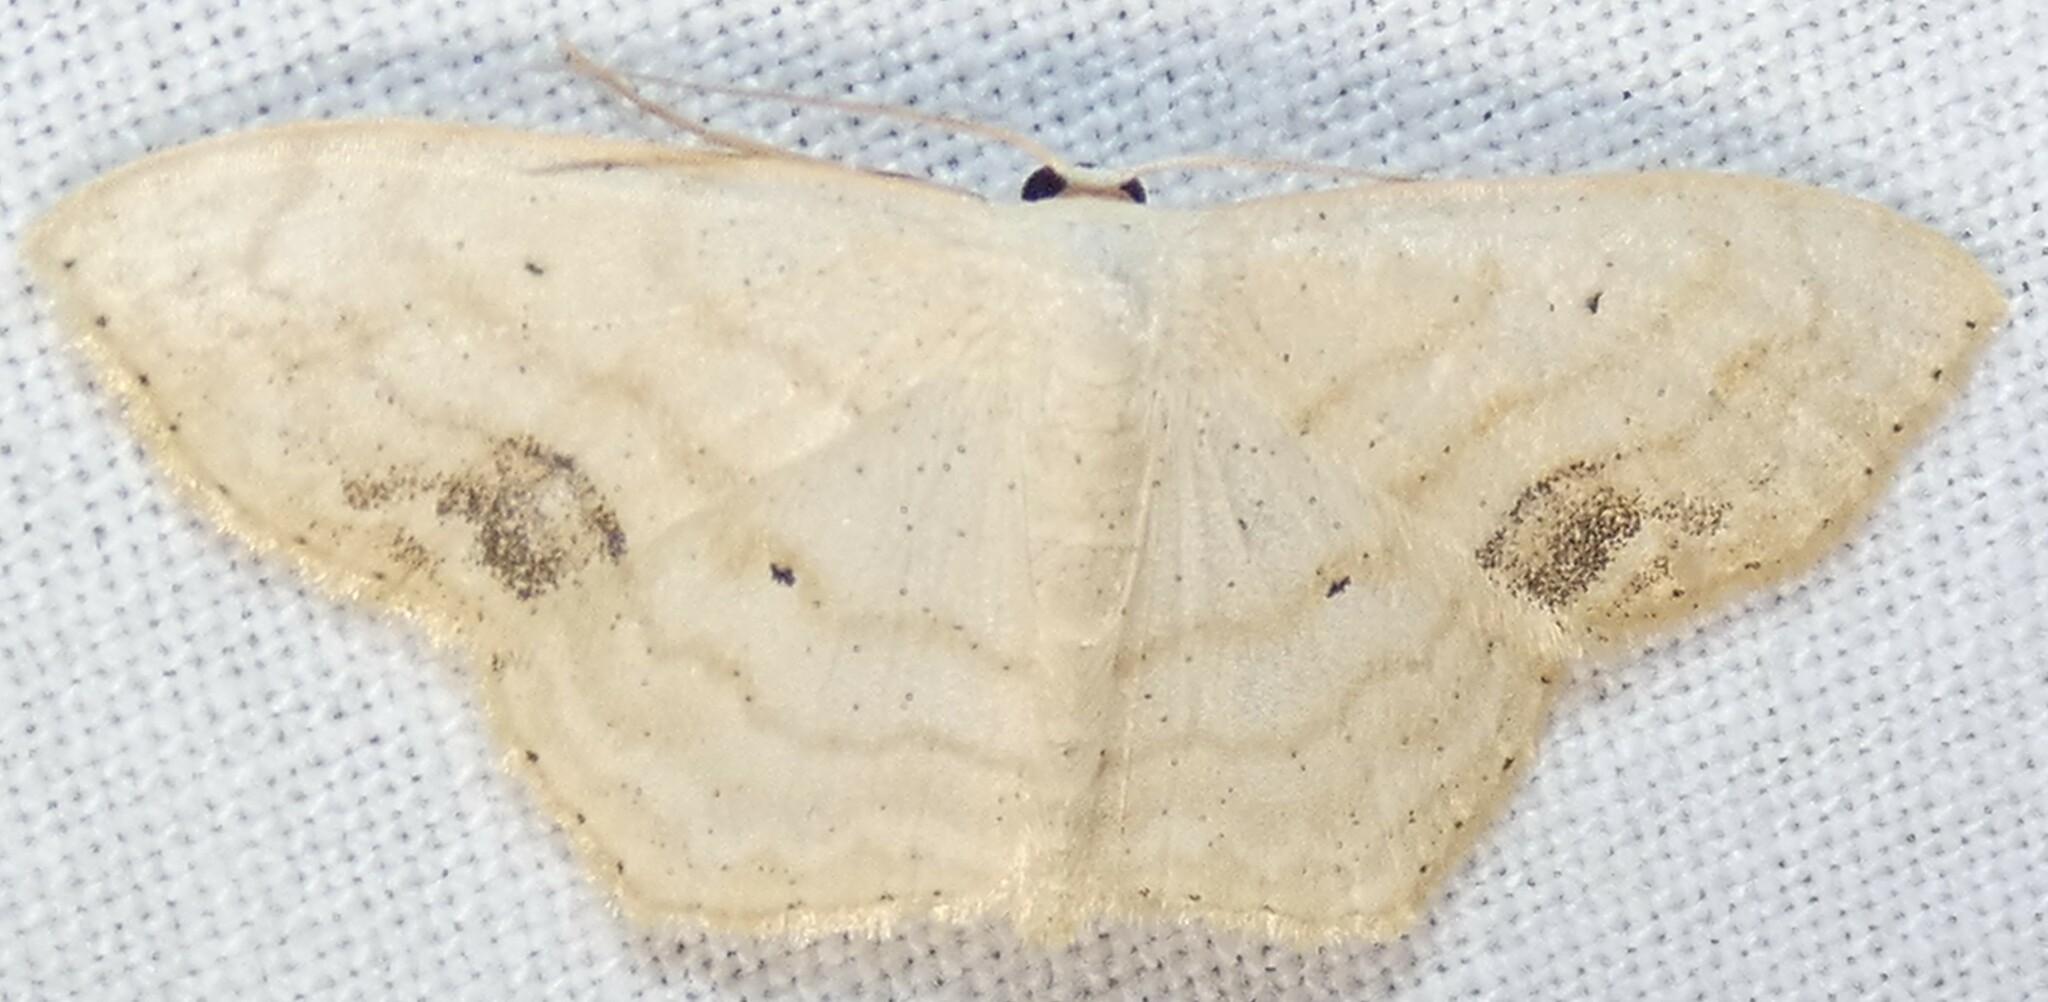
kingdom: Animalia
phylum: Arthropoda
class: Insecta
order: Lepidoptera
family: Geometridae
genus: Scopula
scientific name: Scopula limboundata
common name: Large lace border
